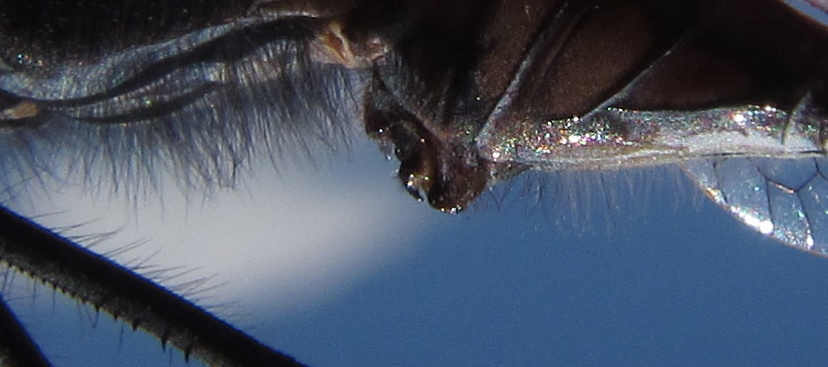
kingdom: Animalia
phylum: Arthropoda
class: Insecta
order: Odonata
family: Libellulidae
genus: Trithemis
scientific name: Trithemis hecate
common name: Silhouette dropwing
